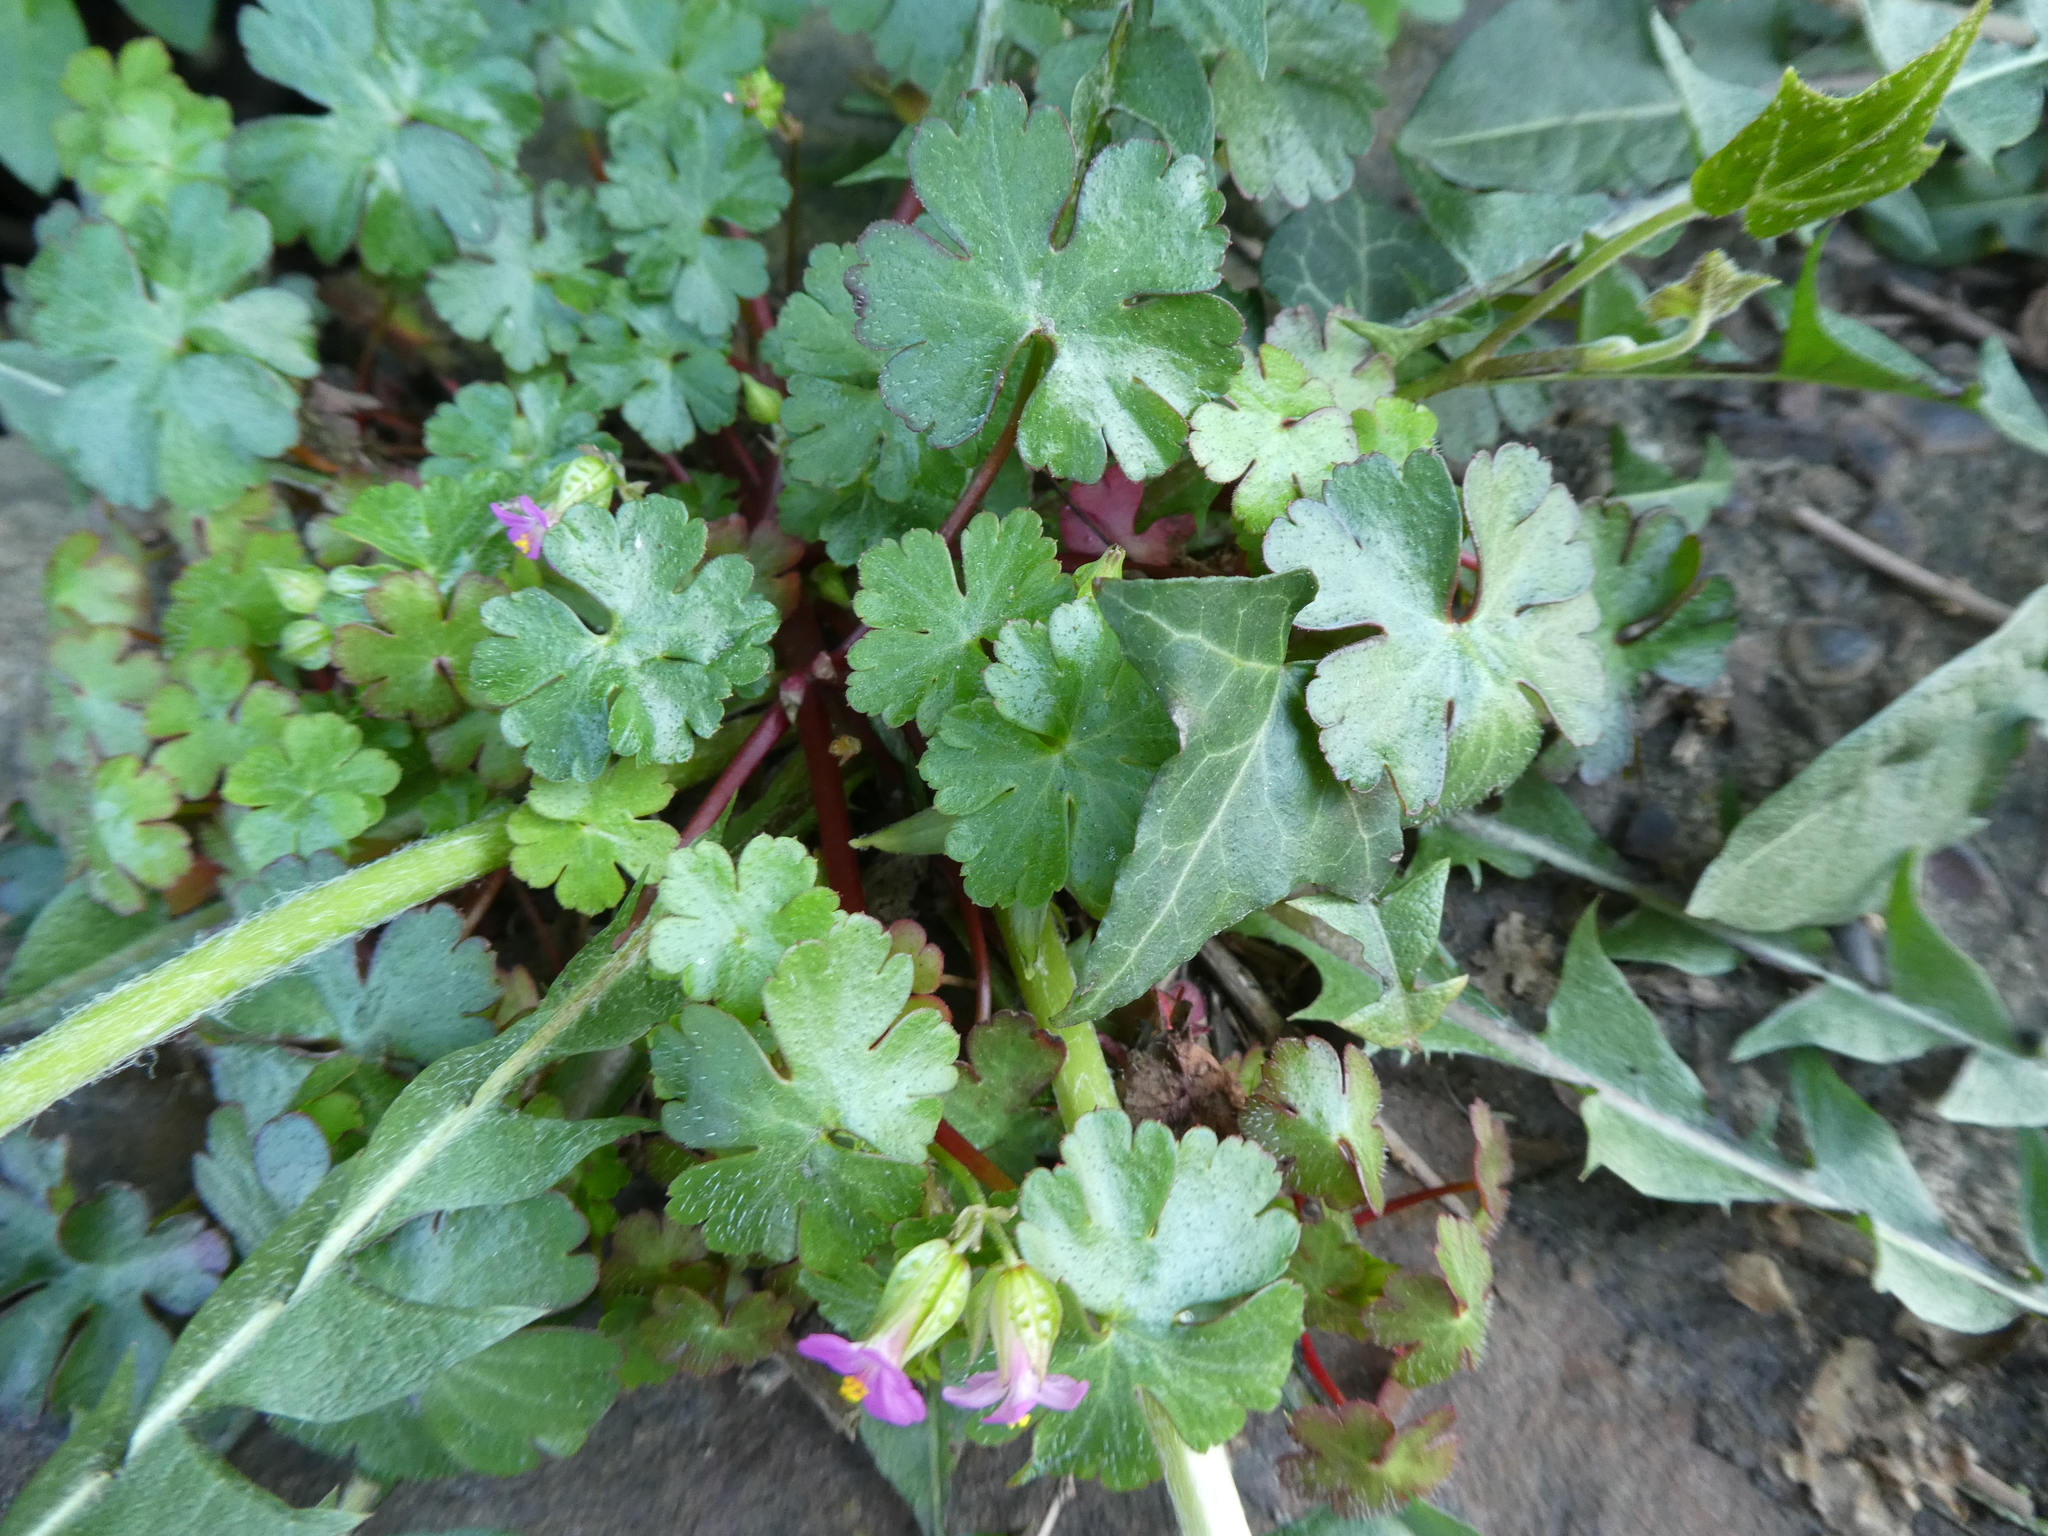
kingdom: Plantae
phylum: Tracheophyta
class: Magnoliopsida
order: Geraniales
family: Geraniaceae
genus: Geranium
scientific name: Geranium lucidum
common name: Shining crane's-bill
